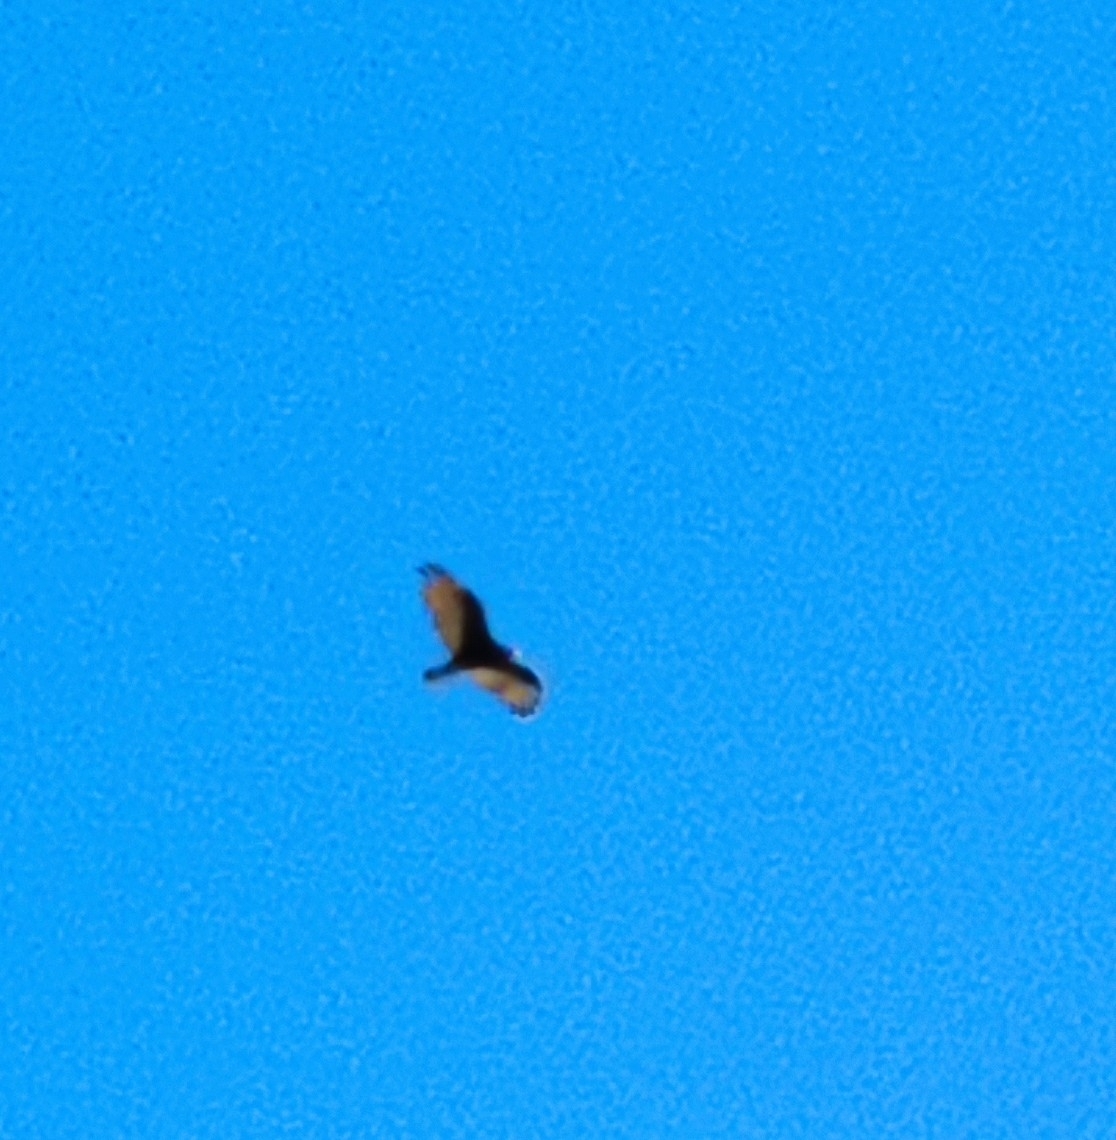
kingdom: Animalia
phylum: Chordata
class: Aves
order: Accipitriformes
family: Cathartidae
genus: Cathartes
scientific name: Cathartes aura
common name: Turkey vulture
